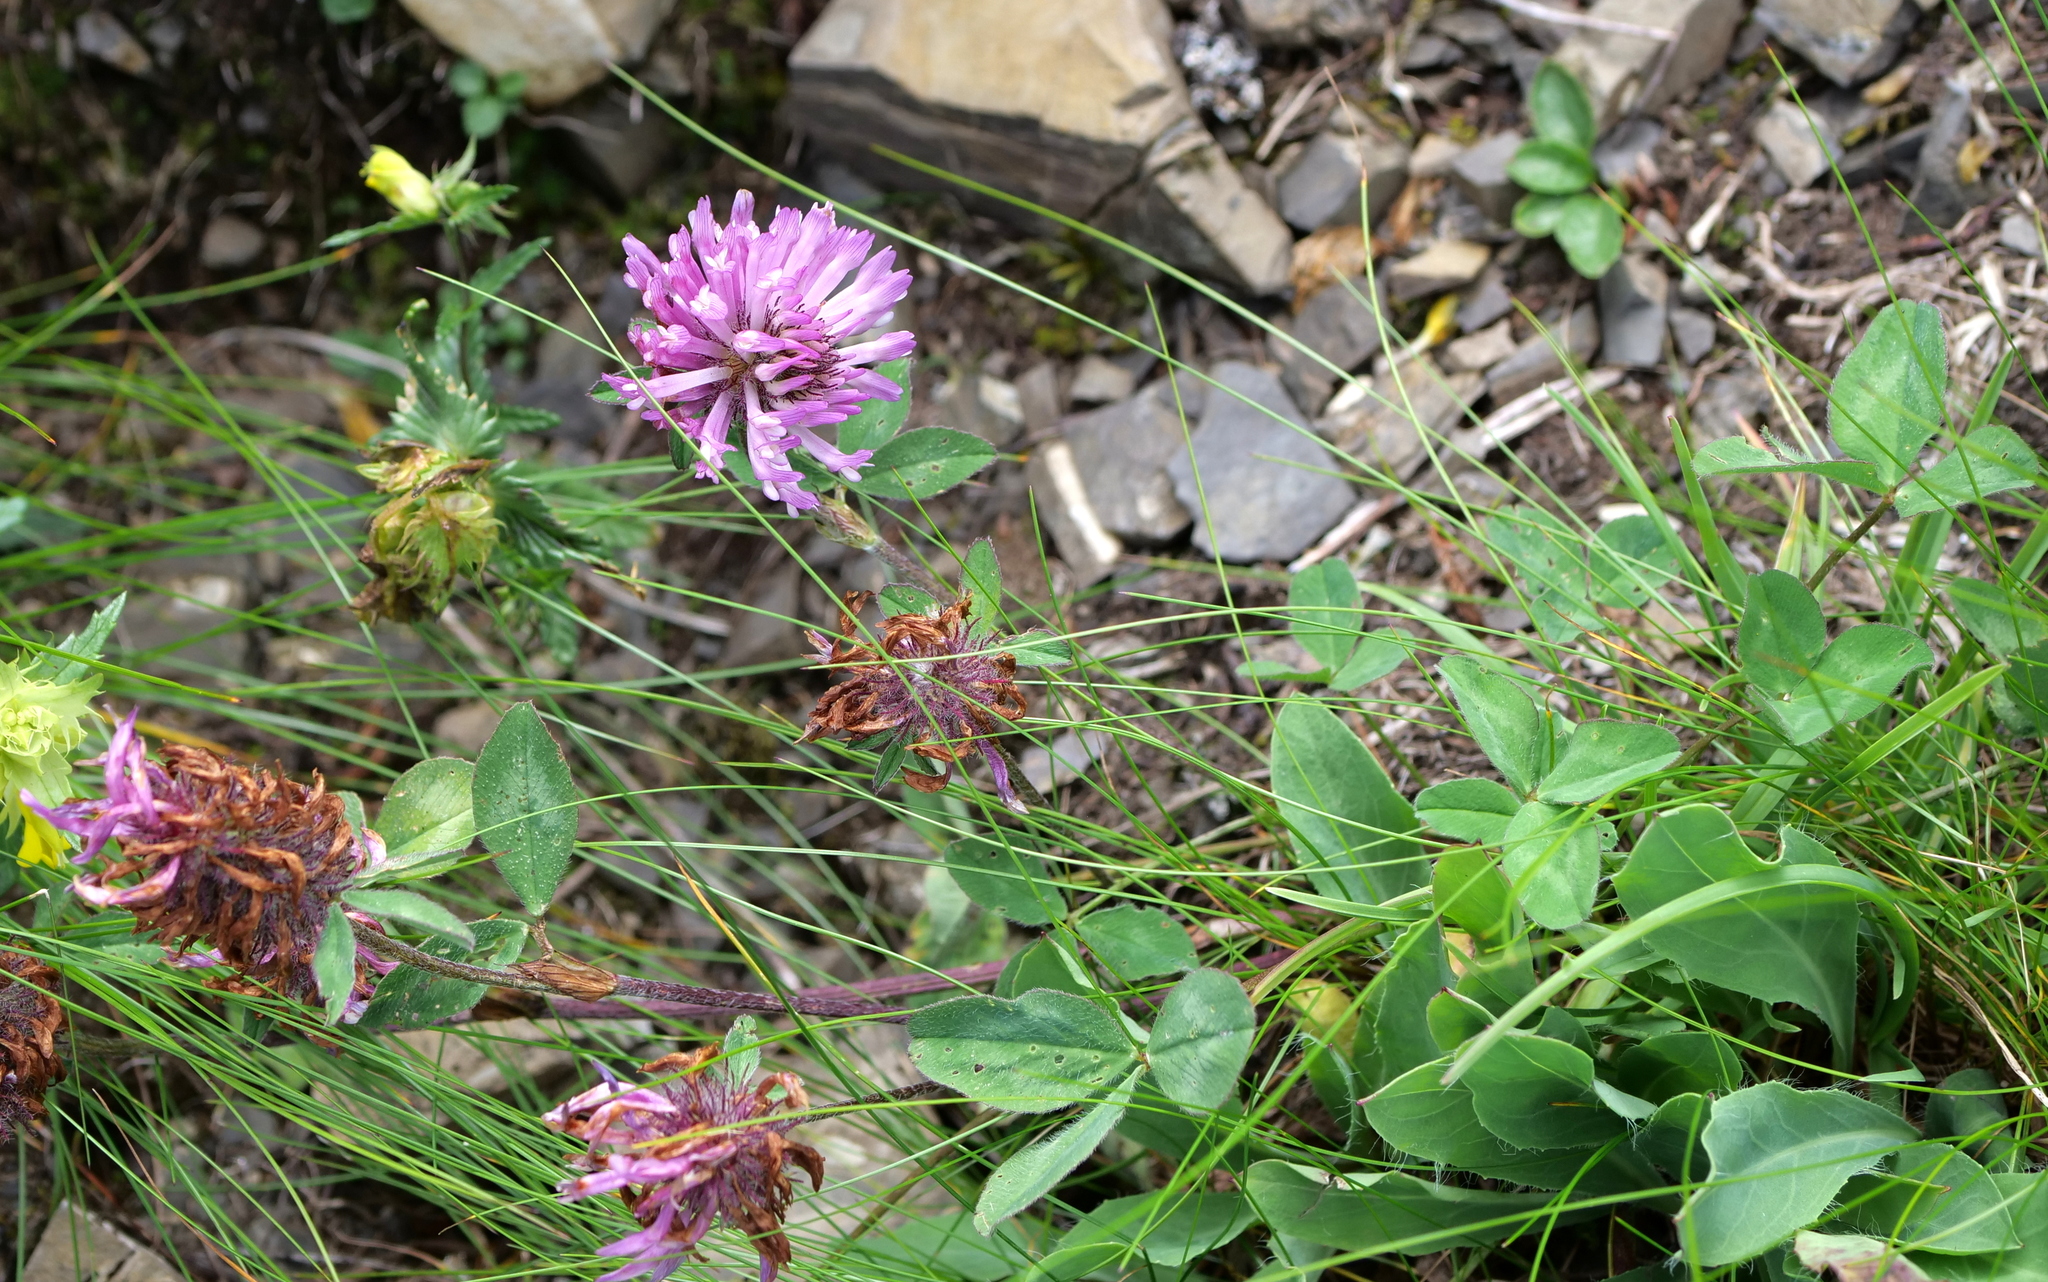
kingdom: Plantae
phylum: Tracheophyta
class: Magnoliopsida
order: Fabales
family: Fabaceae
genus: Trifolium
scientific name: Trifolium pratense
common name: Red clover
